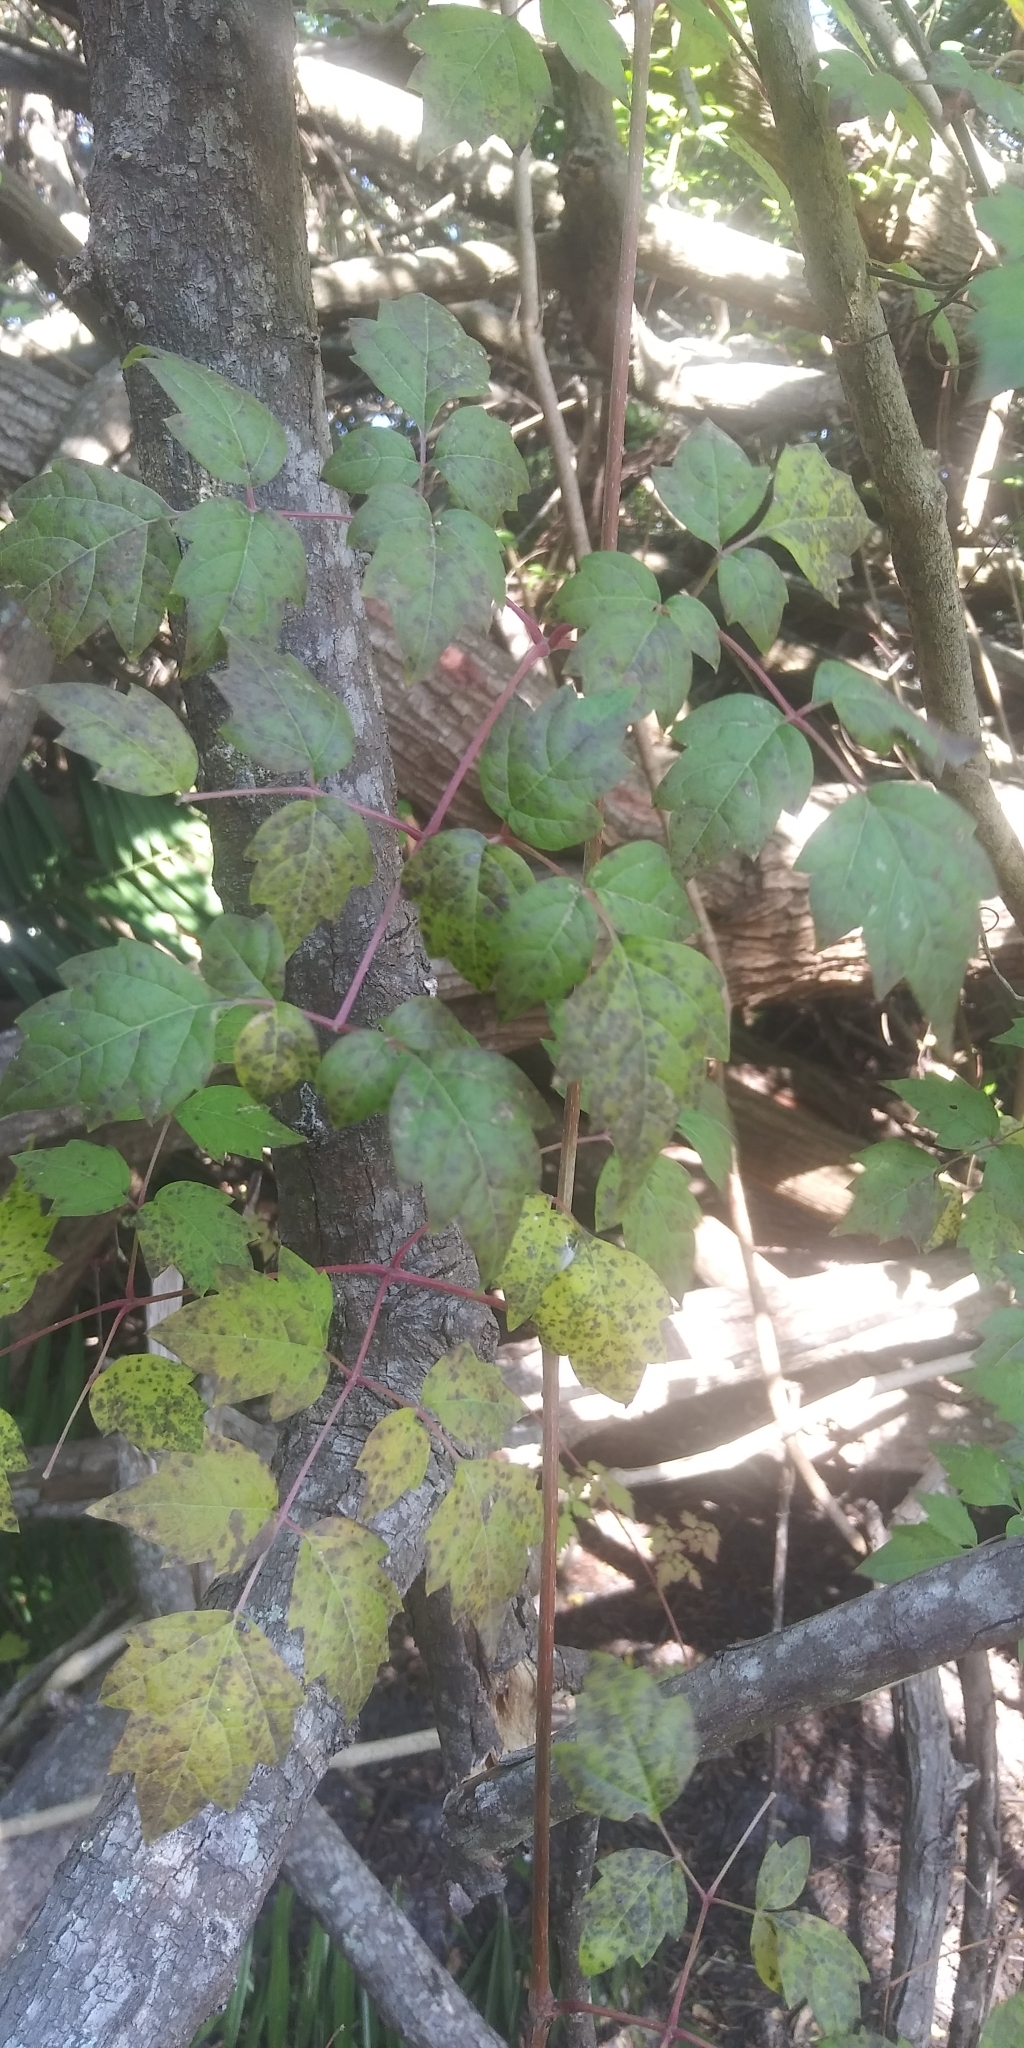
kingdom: Plantae
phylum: Tracheophyta
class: Magnoliopsida
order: Vitales
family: Vitaceae
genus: Nekemias
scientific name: Nekemias arborea
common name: Peppervine
